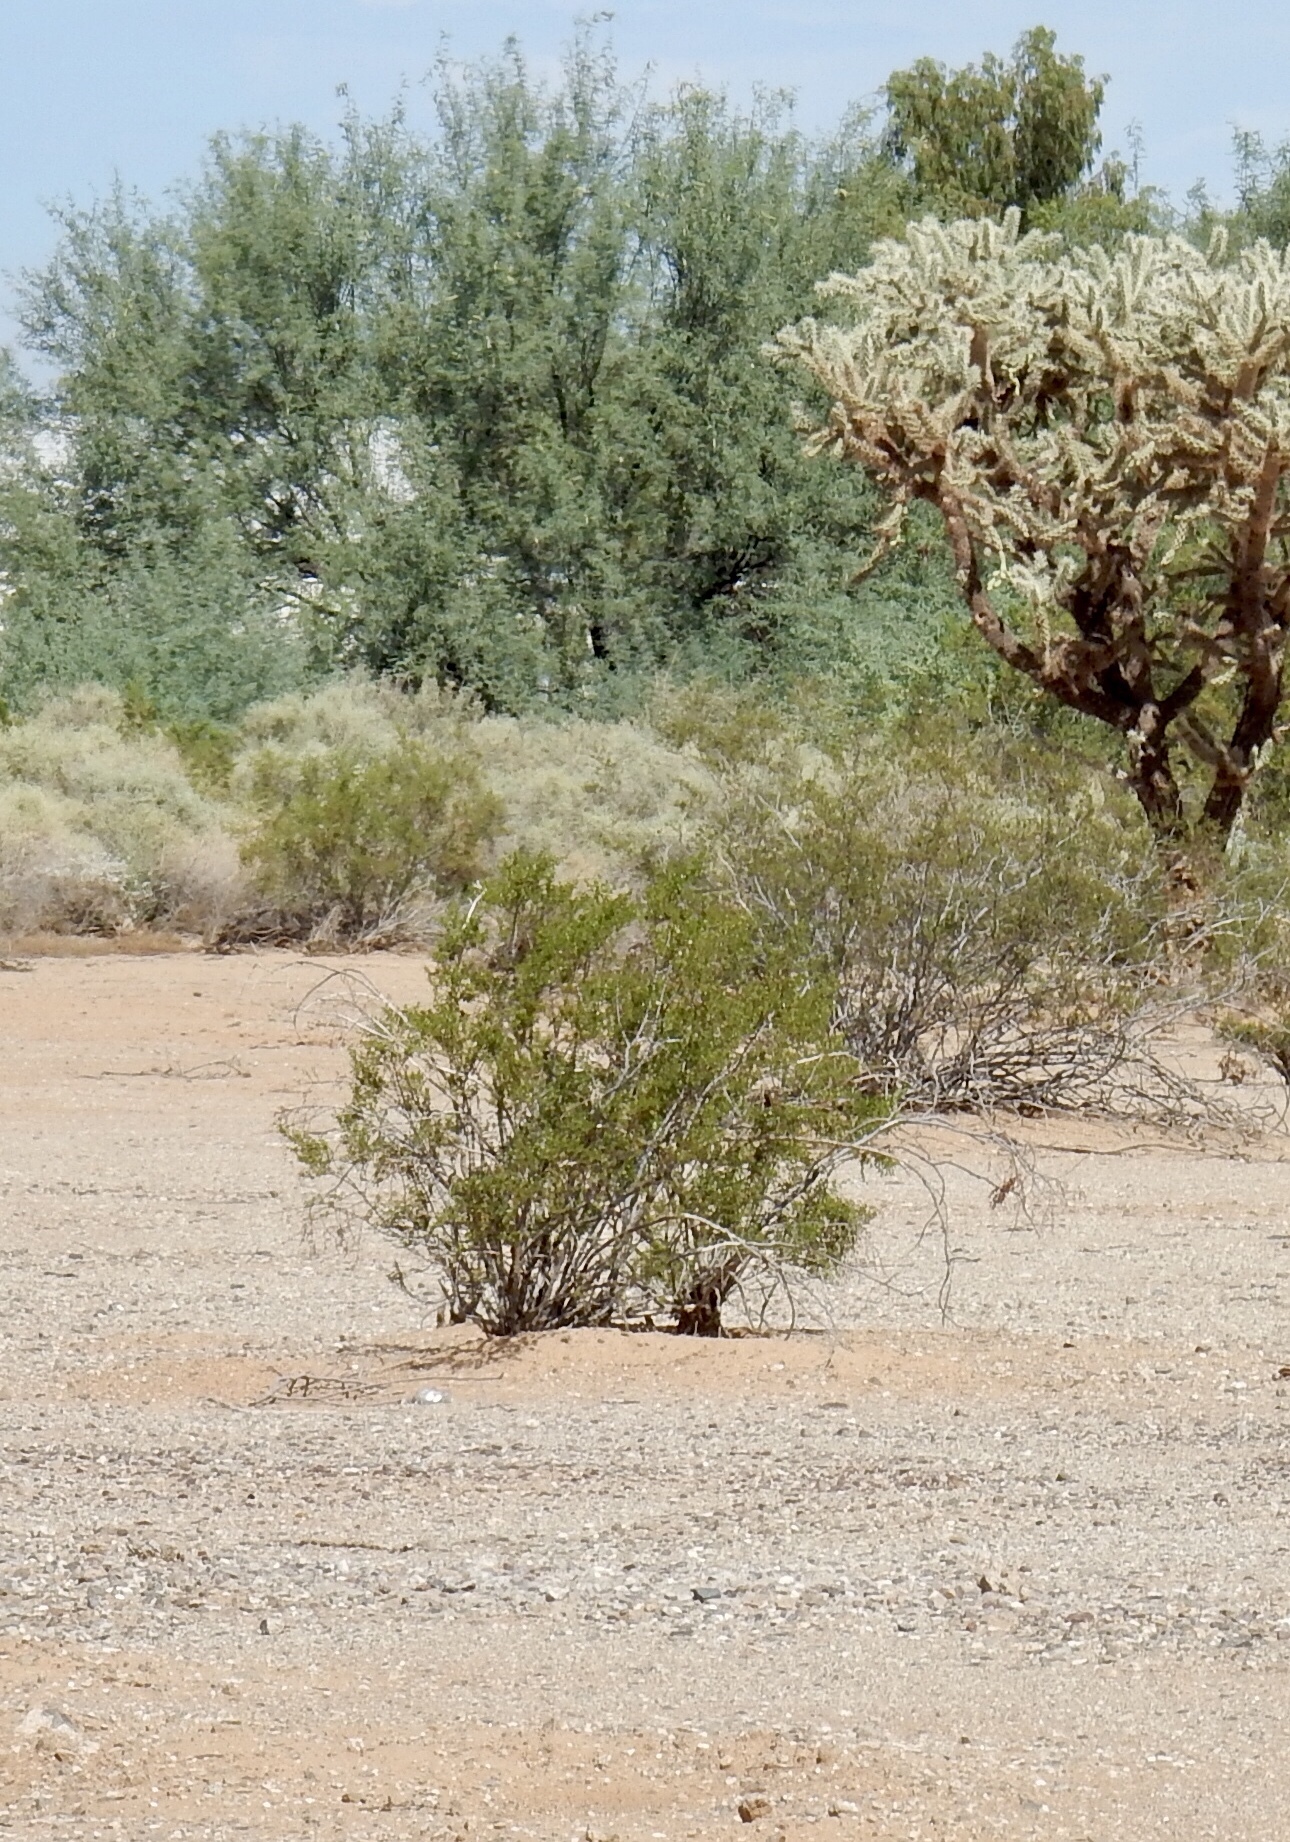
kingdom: Plantae
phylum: Tracheophyta
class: Magnoliopsida
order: Zygophyllales
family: Zygophyllaceae
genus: Larrea
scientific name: Larrea tridentata
